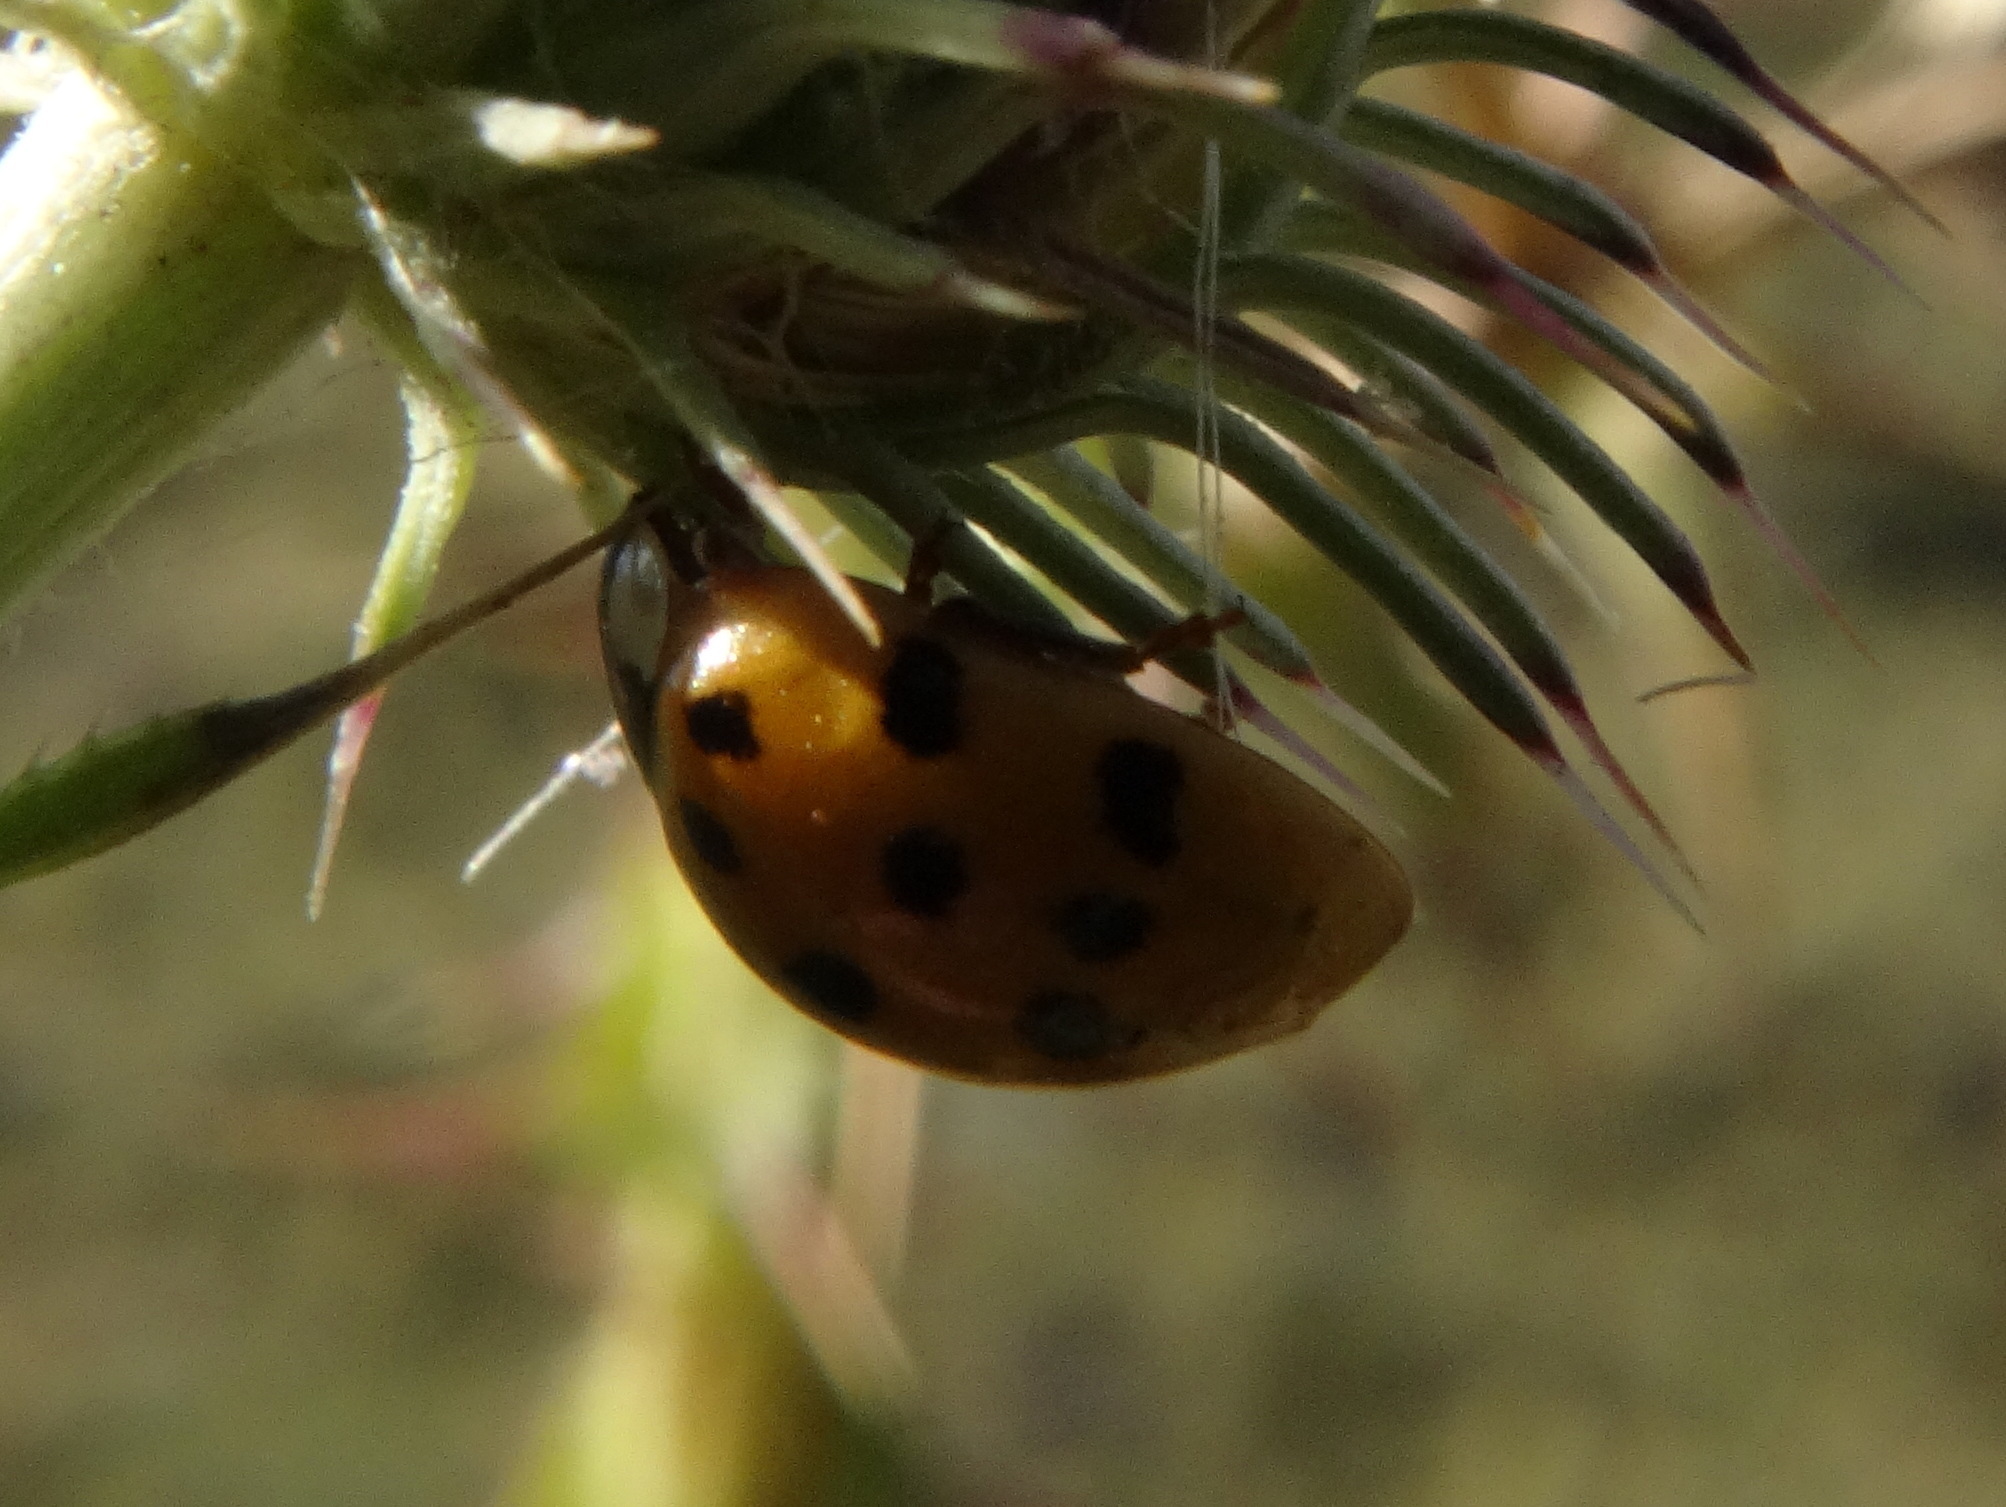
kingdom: Animalia
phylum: Arthropoda
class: Insecta
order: Coleoptera
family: Coccinellidae
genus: Harmonia
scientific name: Harmonia axyridis
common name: Harlequin ladybird
